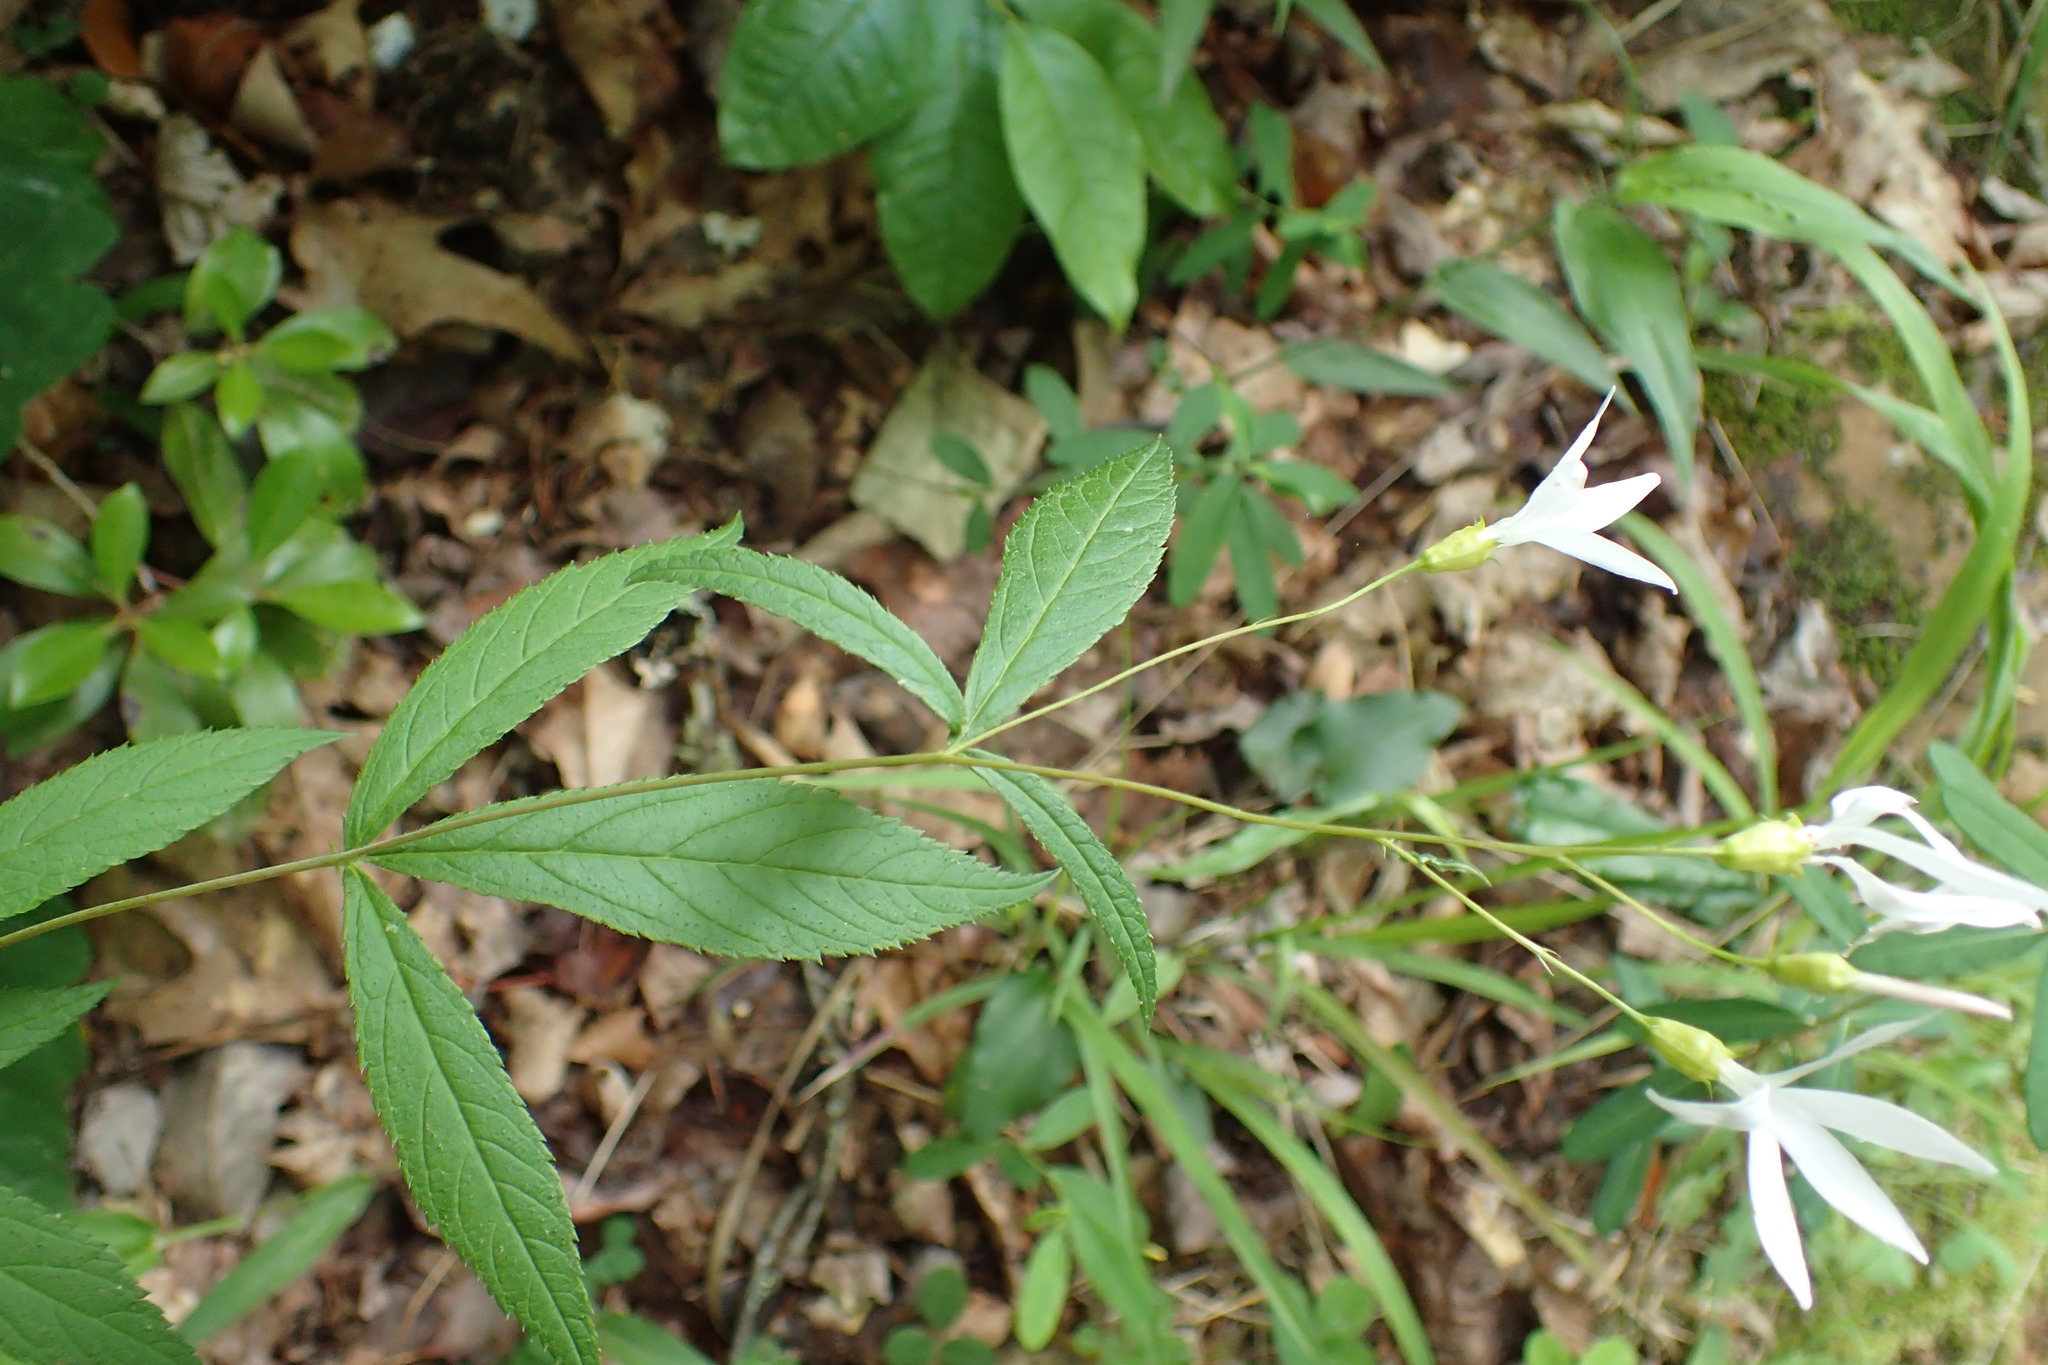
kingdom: Plantae
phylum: Tracheophyta
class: Magnoliopsida
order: Rosales
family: Rosaceae
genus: Gillenia
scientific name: Gillenia trifoliata
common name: Bowman's-root
